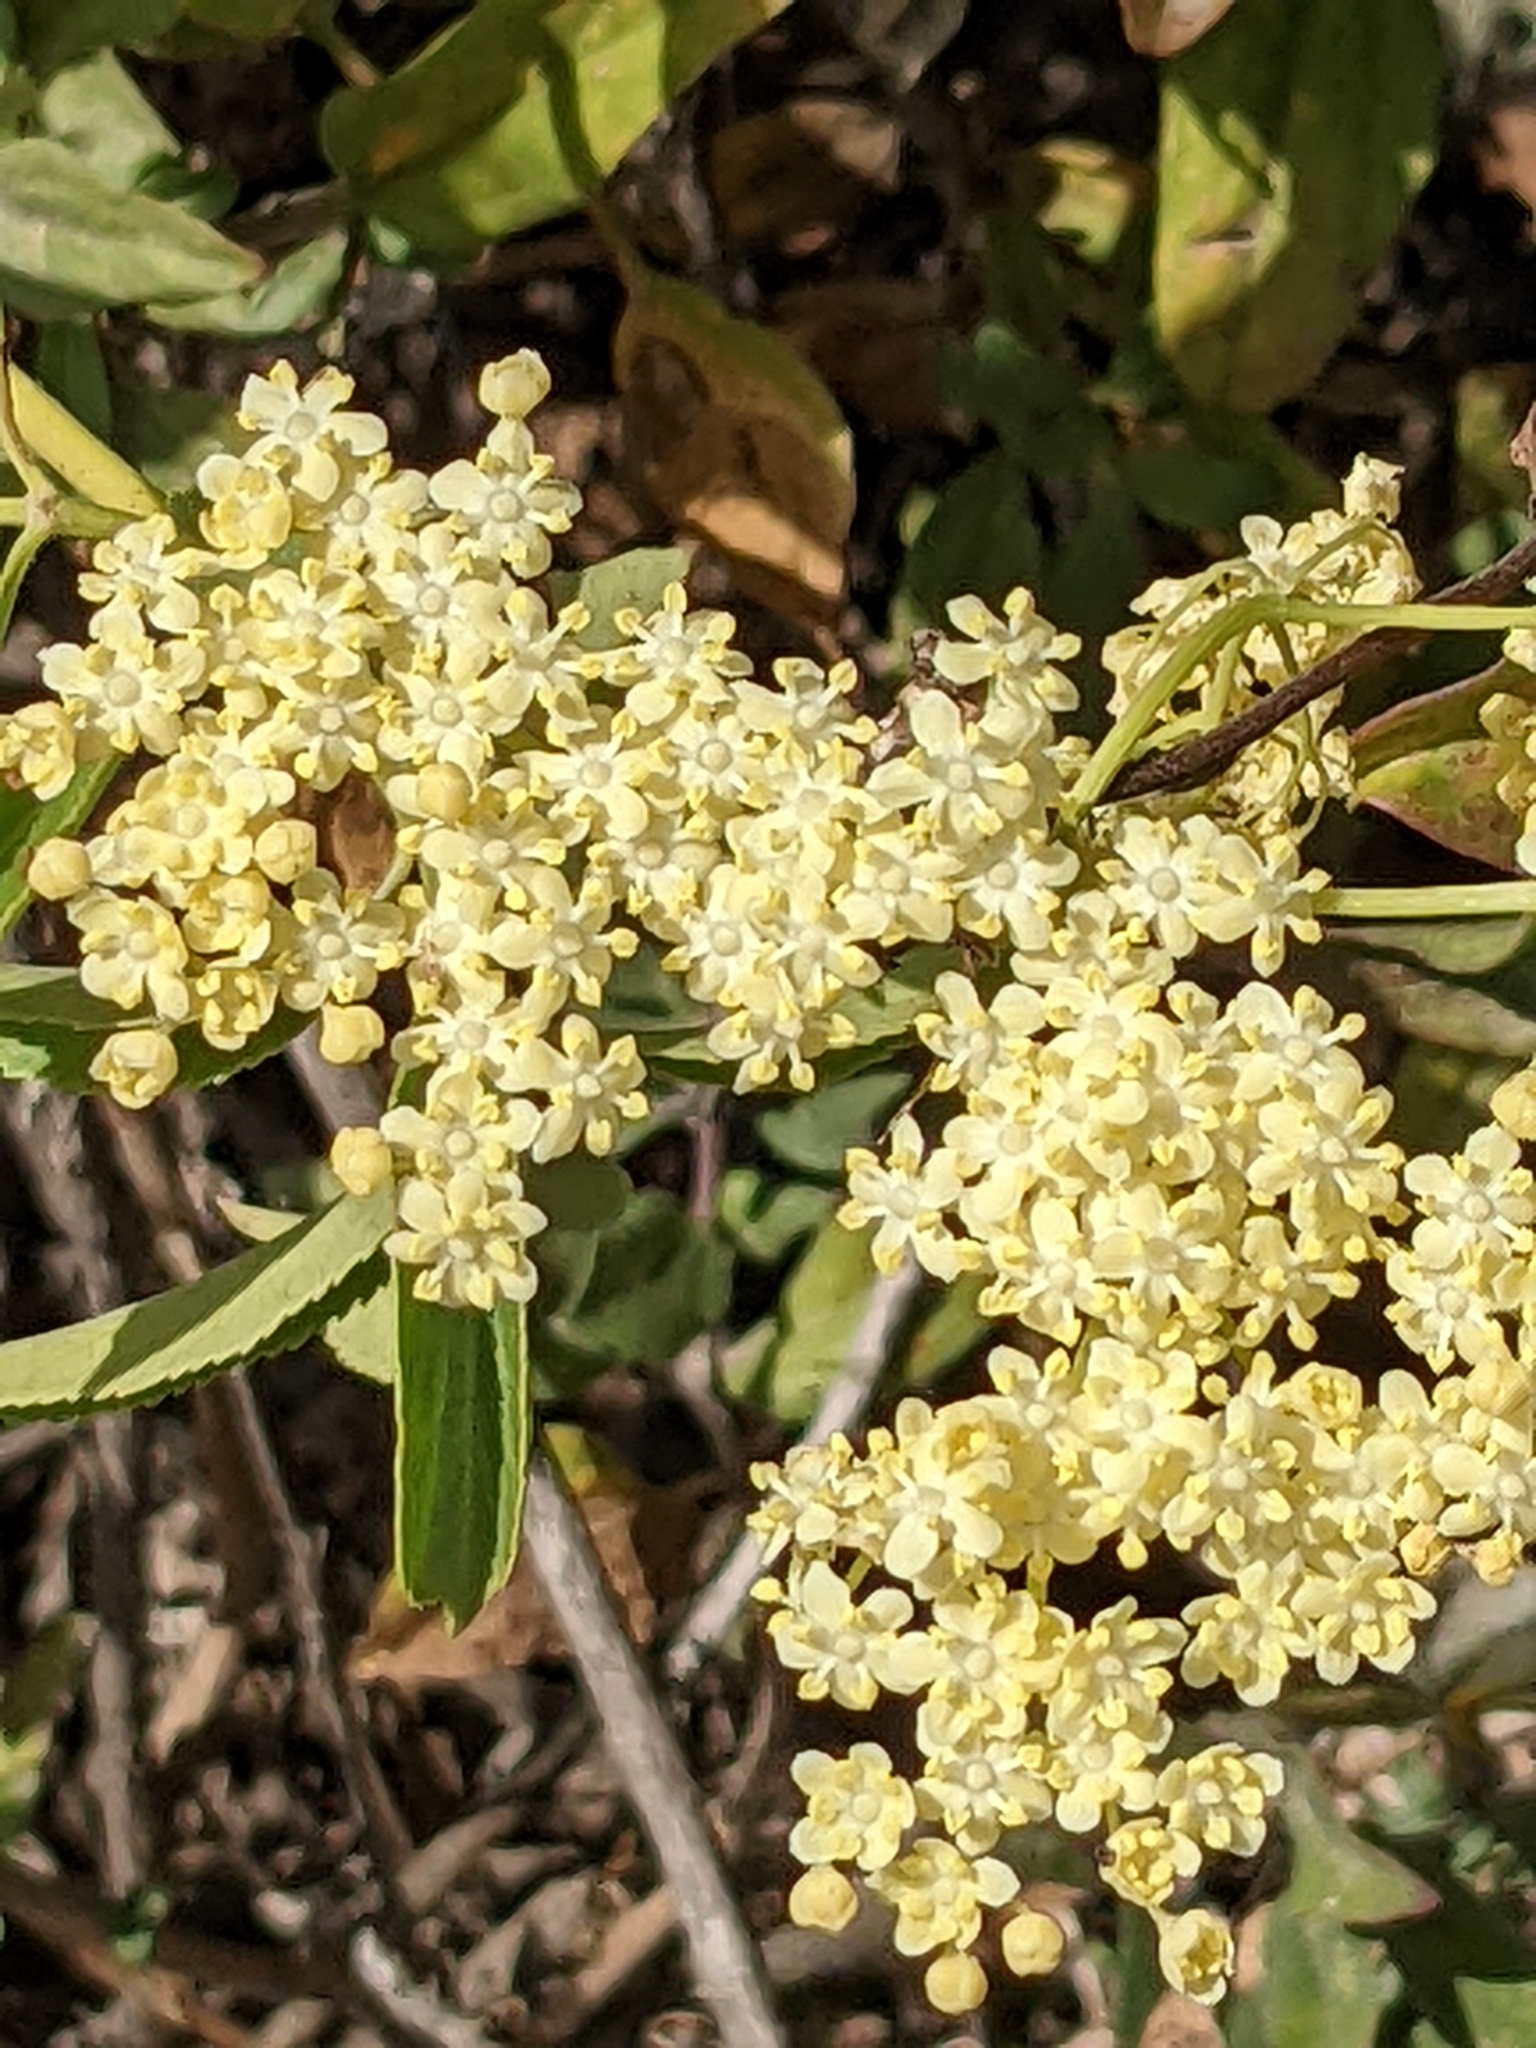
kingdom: Plantae
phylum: Tracheophyta
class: Magnoliopsida
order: Dipsacales
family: Viburnaceae
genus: Sambucus
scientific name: Sambucus cerulea
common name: Blue elder
